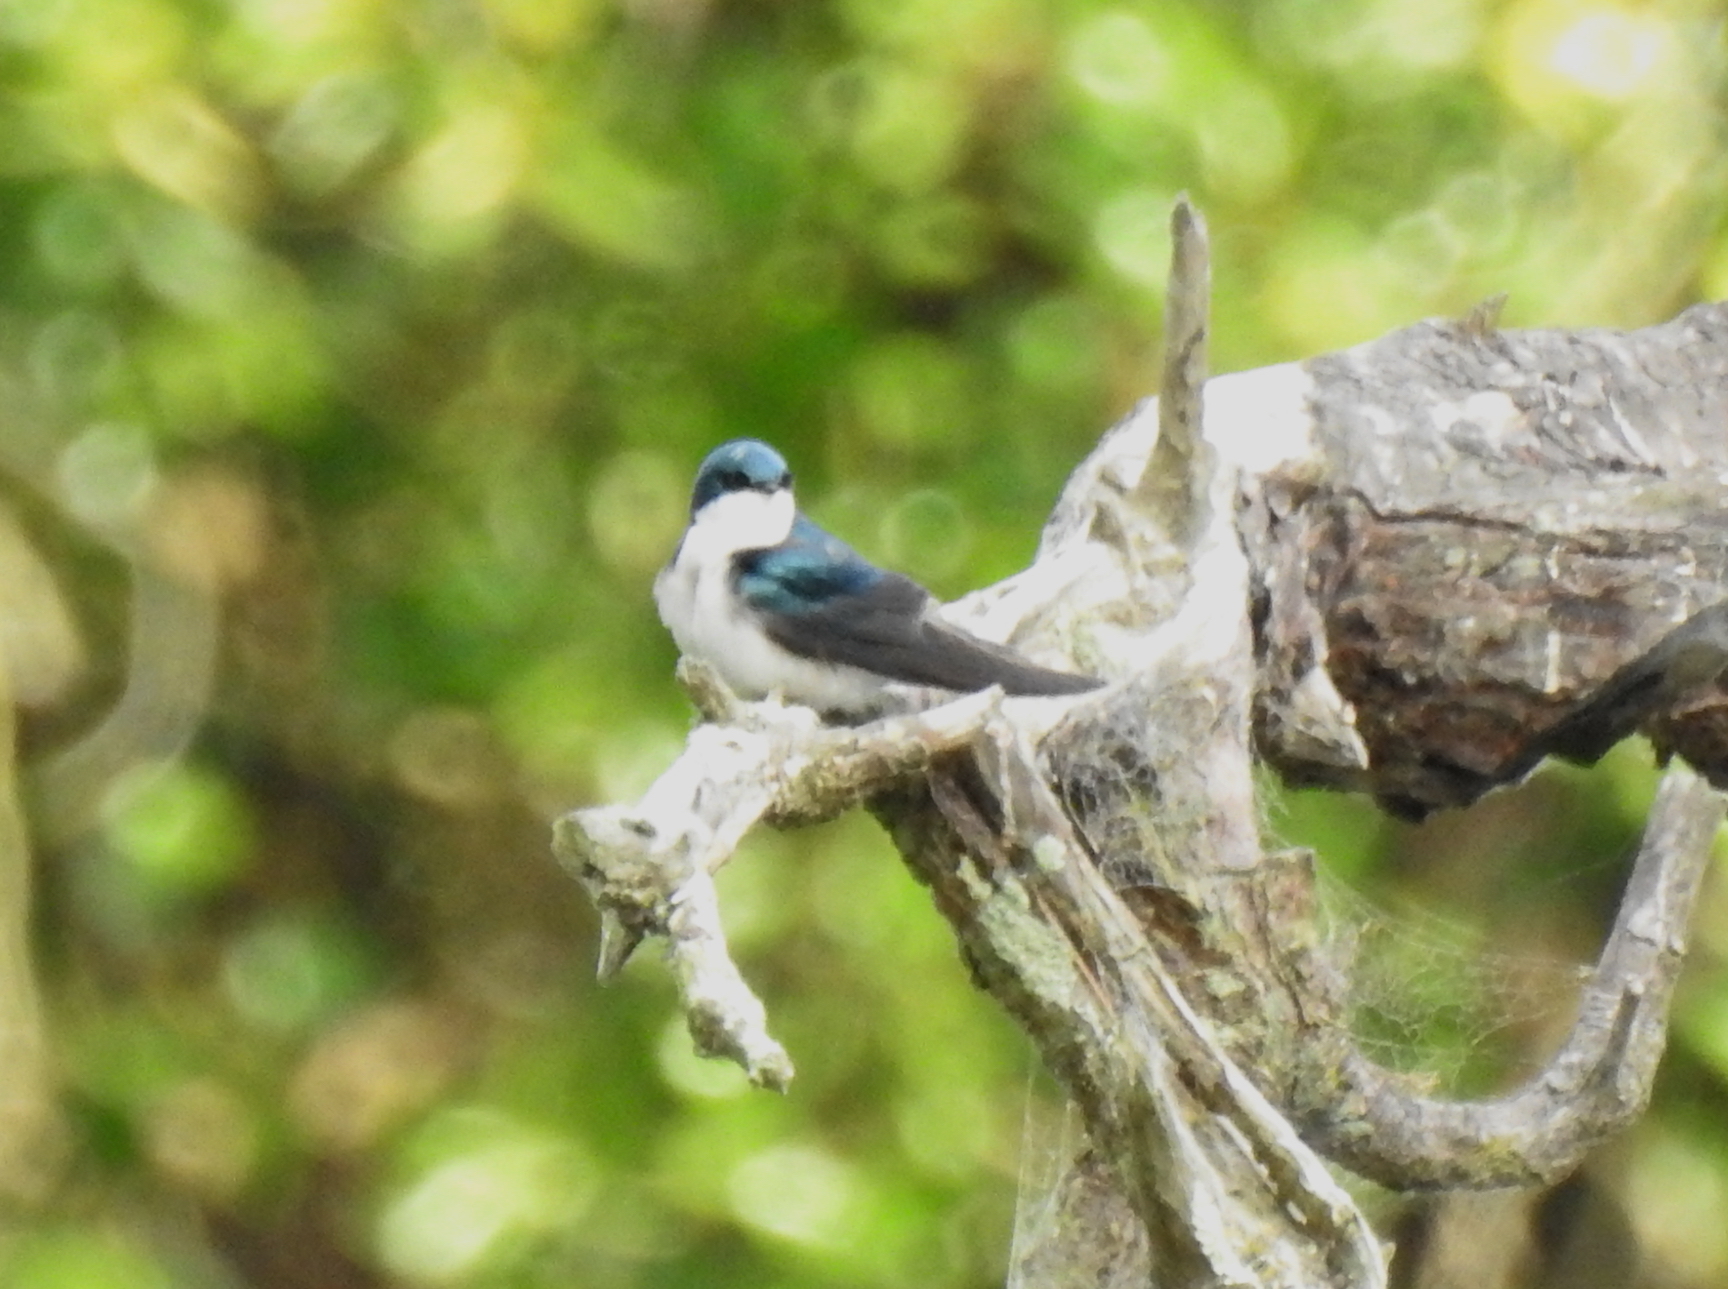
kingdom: Animalia
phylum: Chordata
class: Aves
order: Passeriformes
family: Hirundinidae
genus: Tachycineta
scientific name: Tachycineta bicolor
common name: Tree swallow
